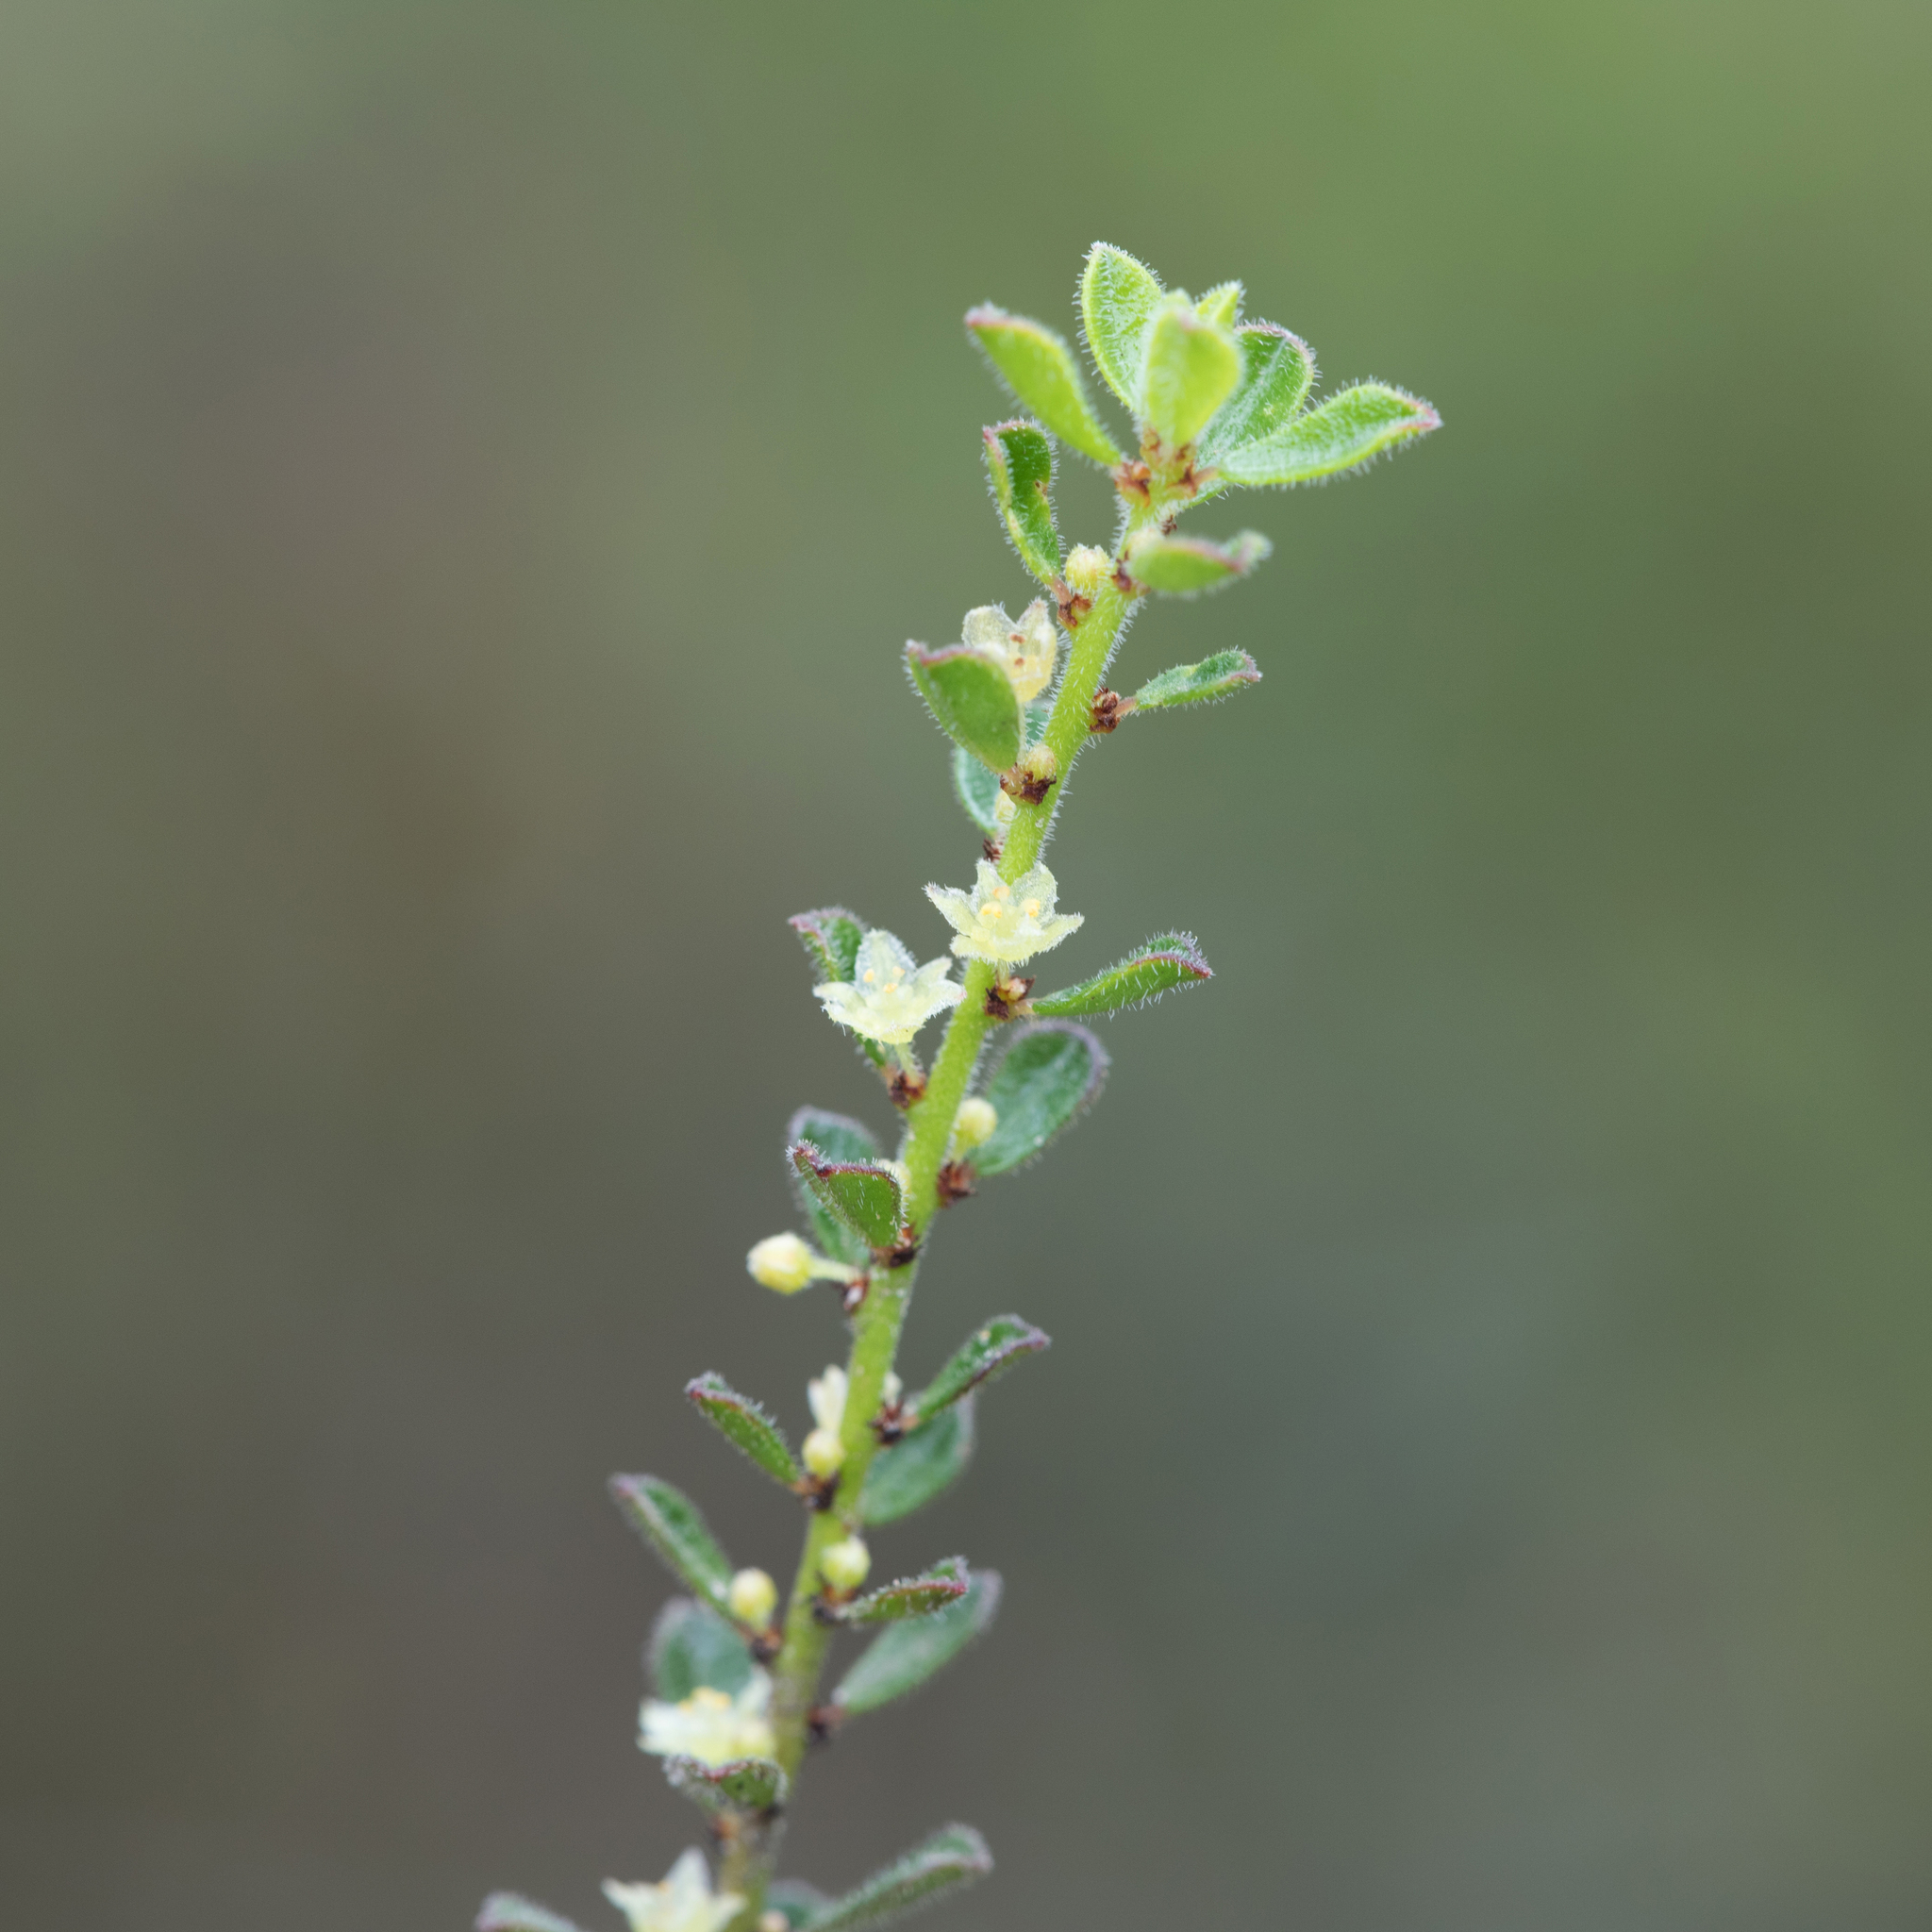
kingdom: Plantae
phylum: Tracheophyta
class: Magnoliopsida
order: Malpighiales
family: Phyllanthaceae
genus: Phyllanthus
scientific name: Phyllanthus hirtellus
